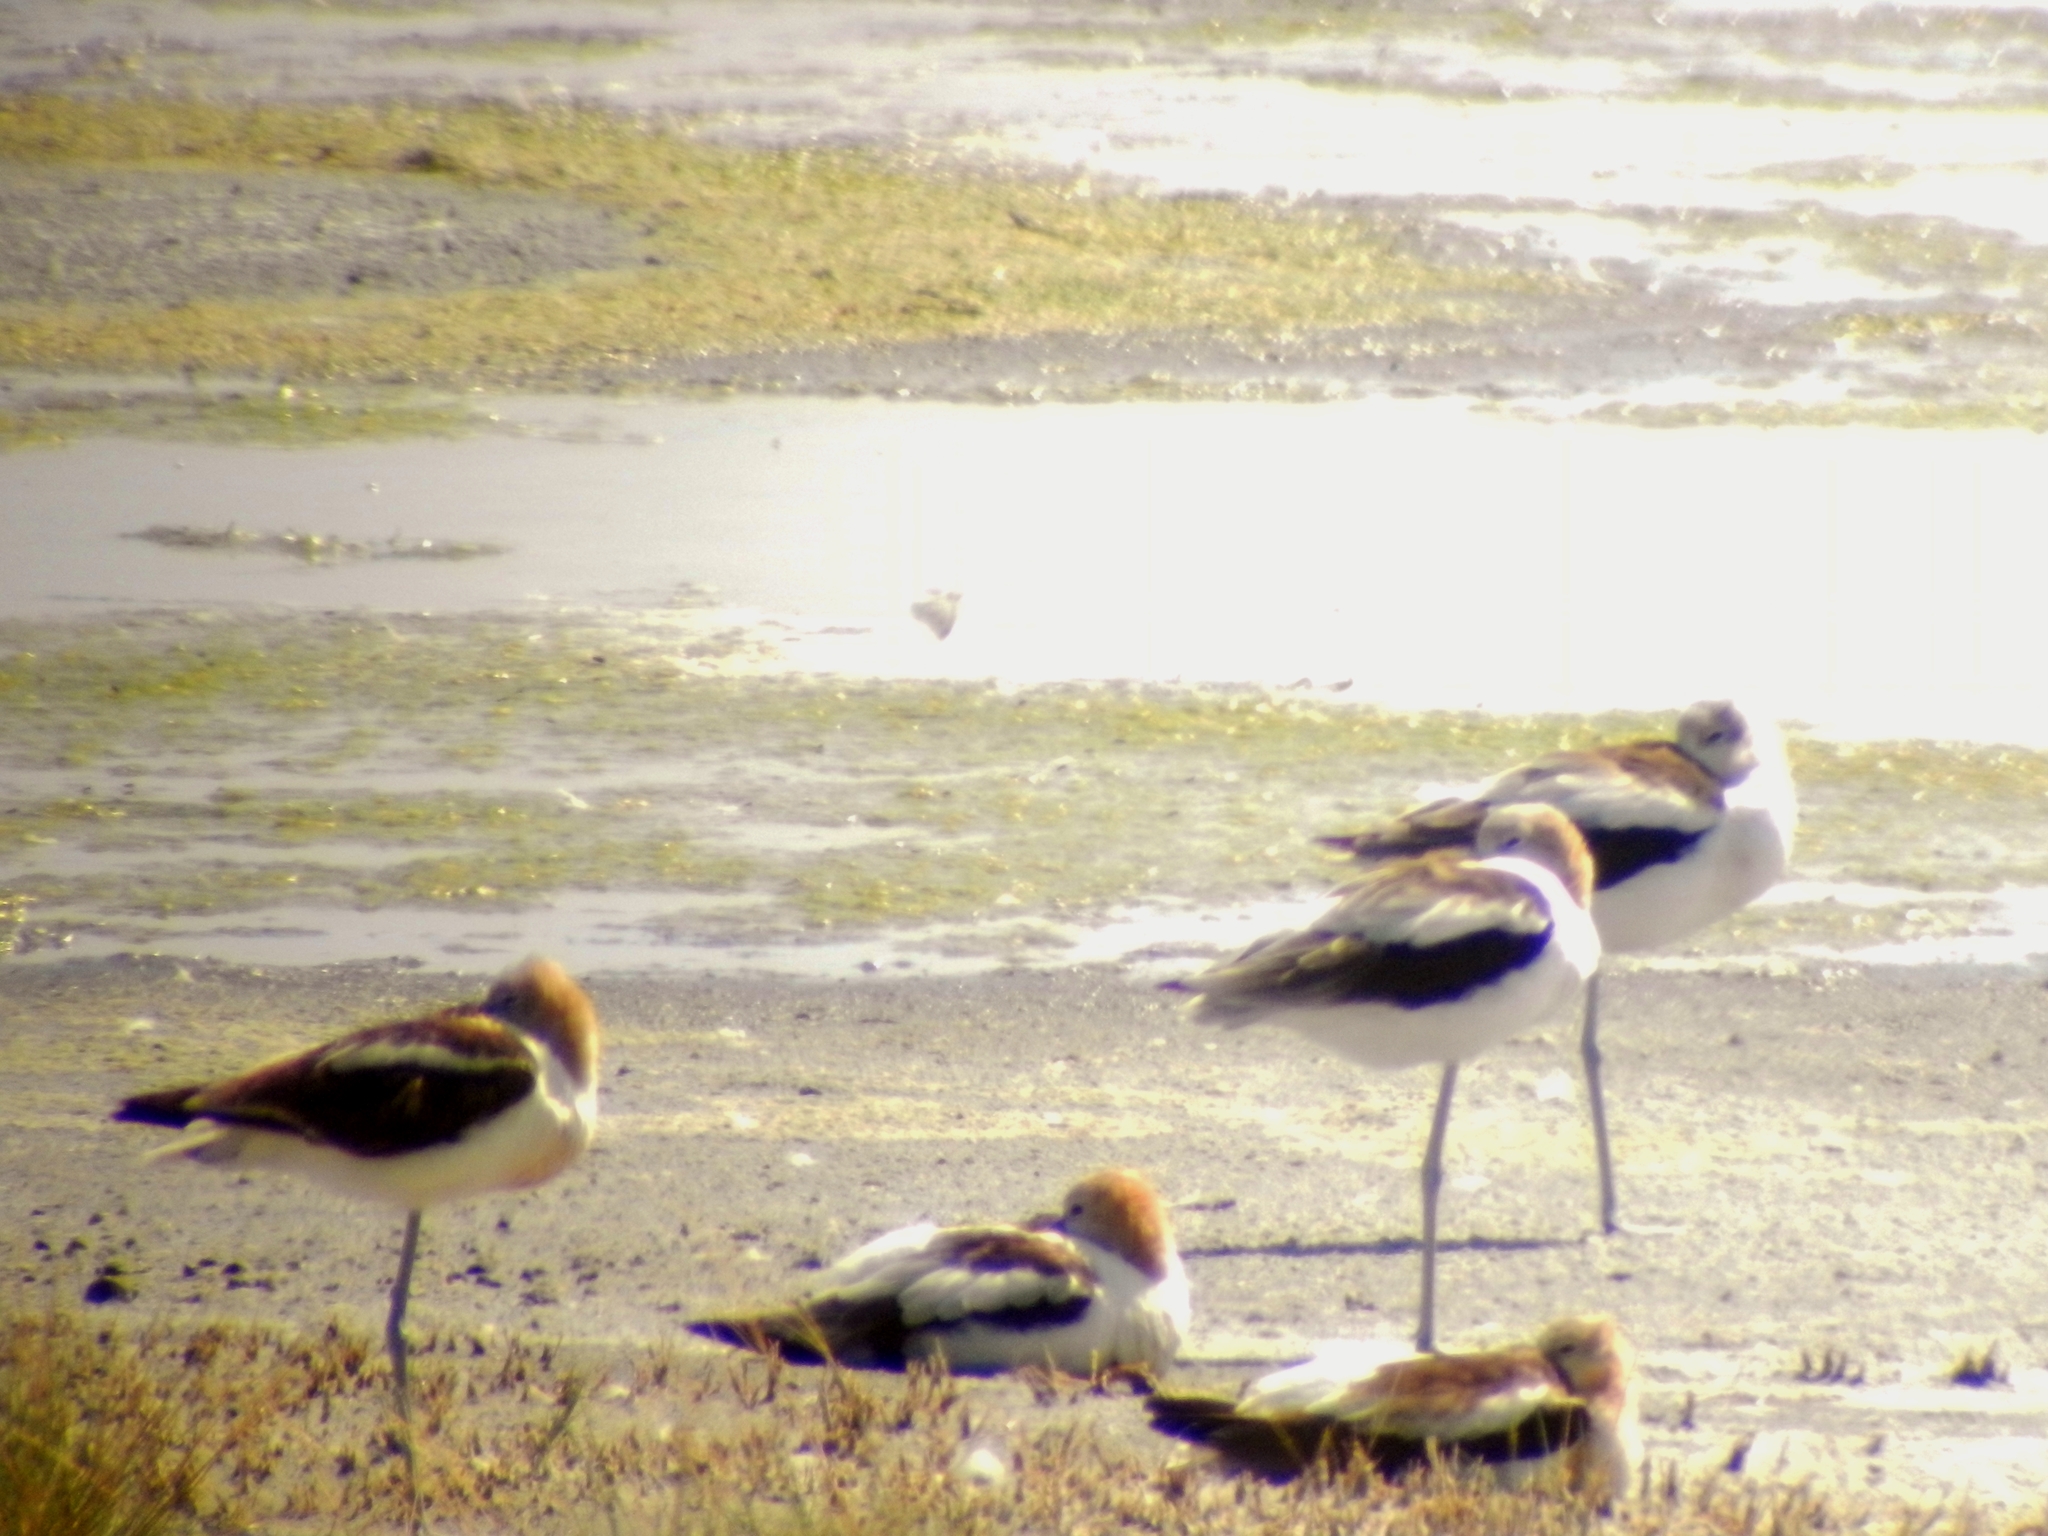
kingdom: Animalia
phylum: Chordata
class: Aves
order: Charadriiformes
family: Recurvirostridae
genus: Recurvirostra
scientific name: Recurvirostra americana
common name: American avocet
